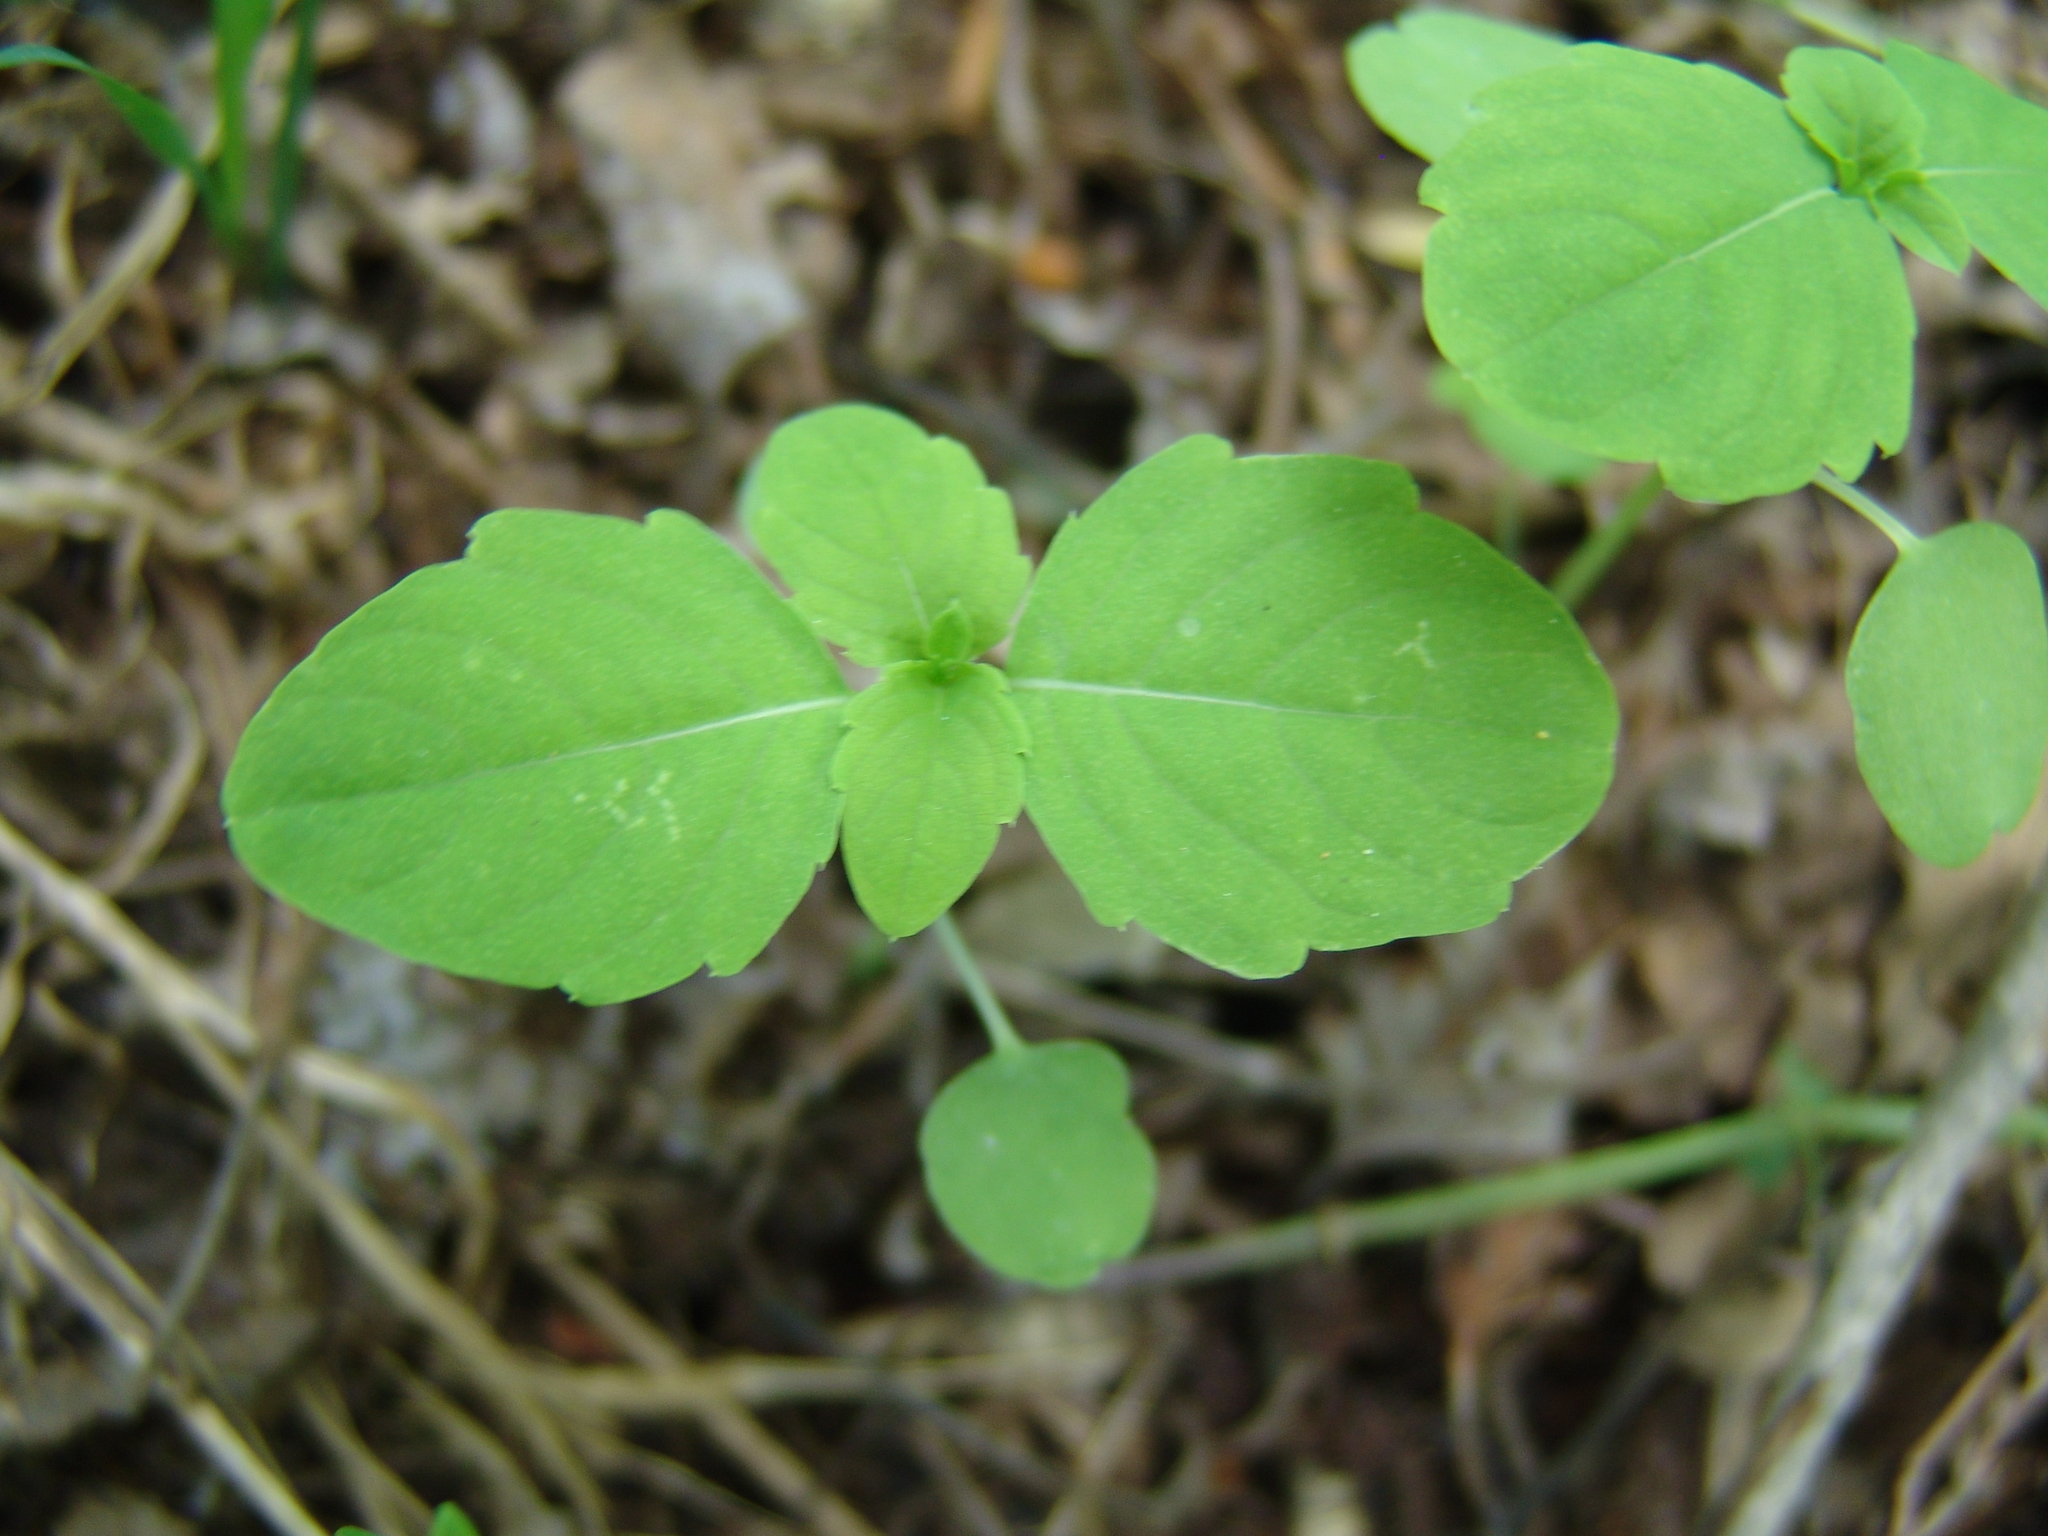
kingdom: Plantae
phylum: Tracheophyta
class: Magnoliopsida
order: Ericales
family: Balsaminaceae
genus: Impatiens
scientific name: Impatiens noli-tangere
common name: Touch-me-not balsam
